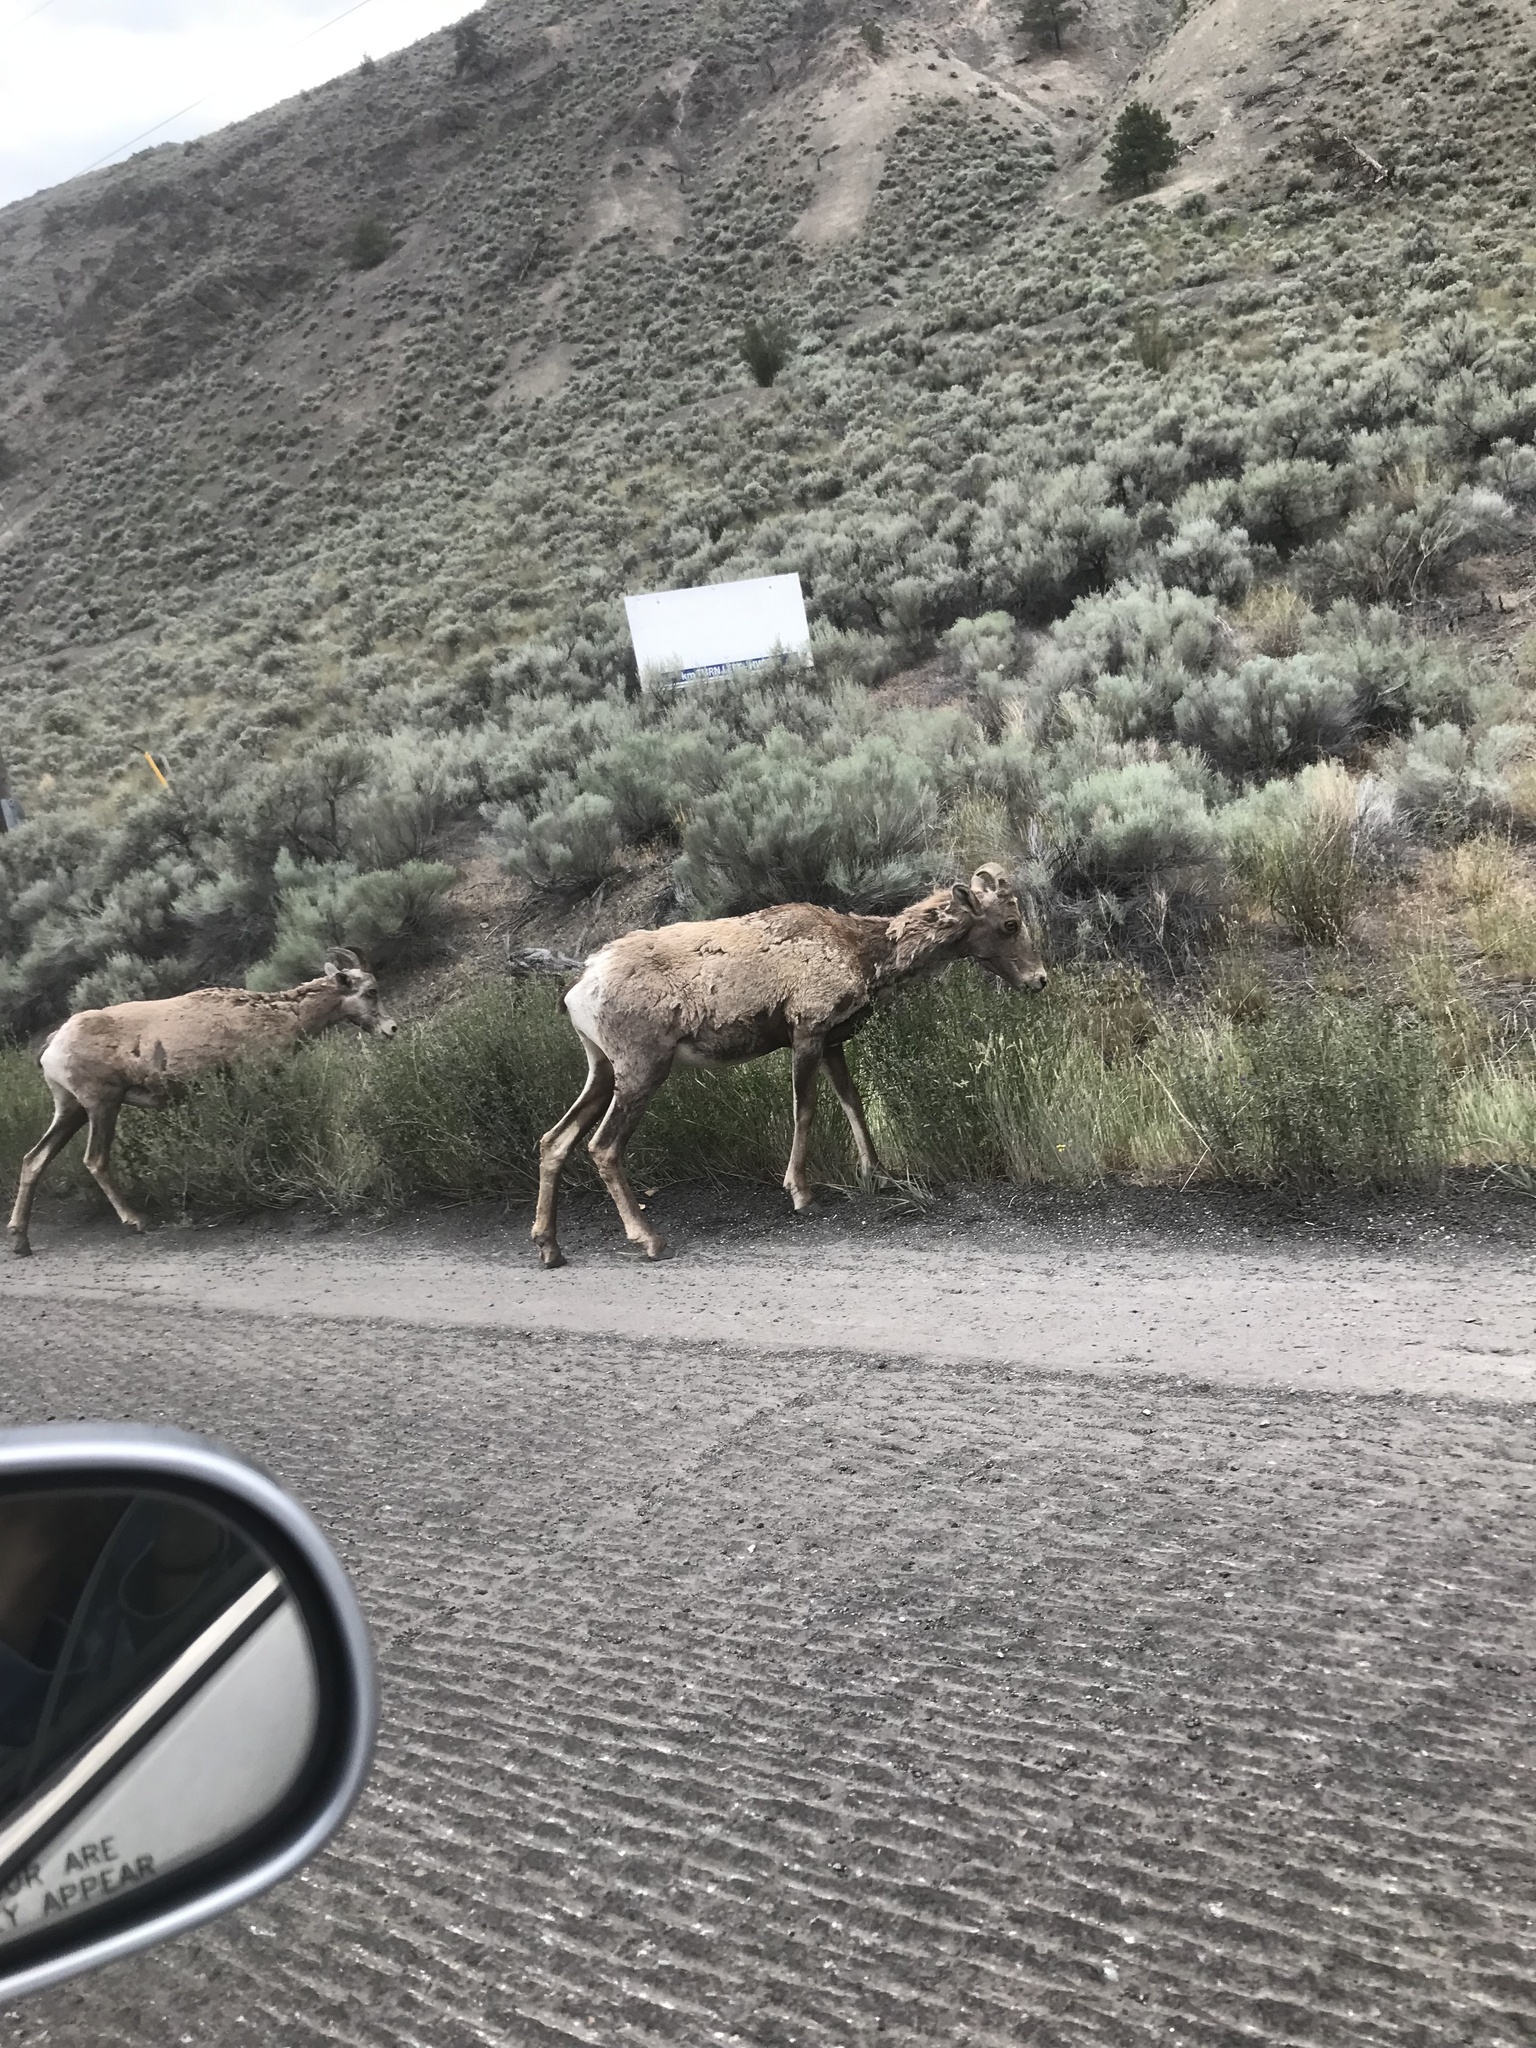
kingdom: Animalia
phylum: Chordata
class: Mammalia
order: Artiodactyla
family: Bovidae
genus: Ovis
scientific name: Ovis canadensis
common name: Bighorn sheep
